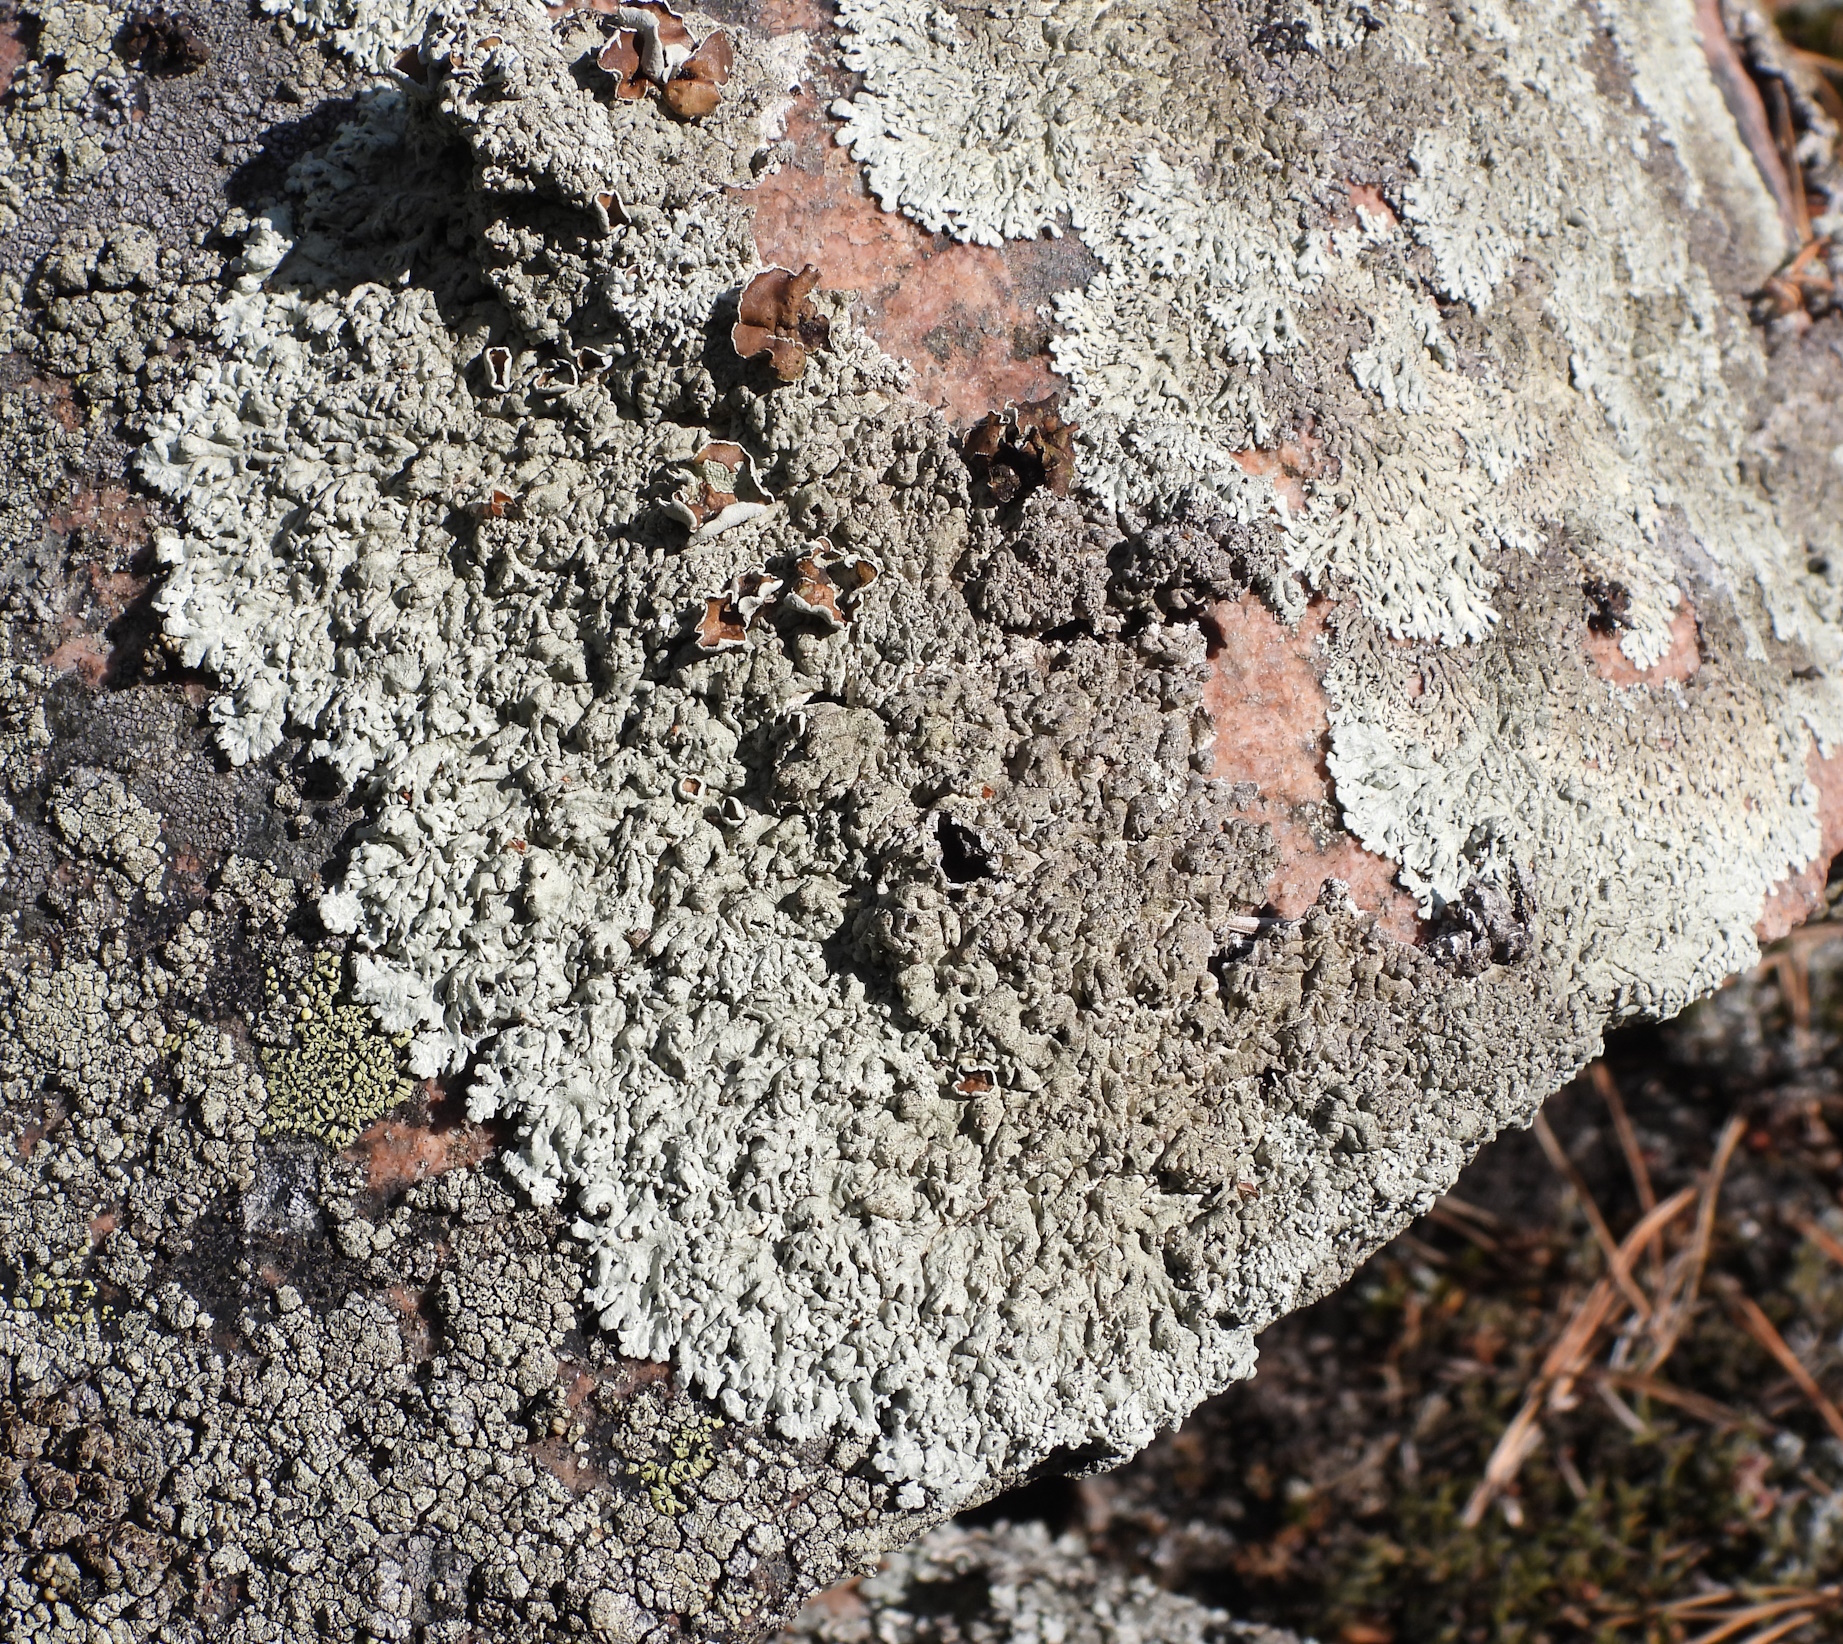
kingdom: Fungi
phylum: Ascomycota
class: Lecanoromycetes
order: Lecanorales
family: Parmeliaceae
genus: Arctoparmelia
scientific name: Arctoparmelia centrifuga
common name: Concentric ring lichen
